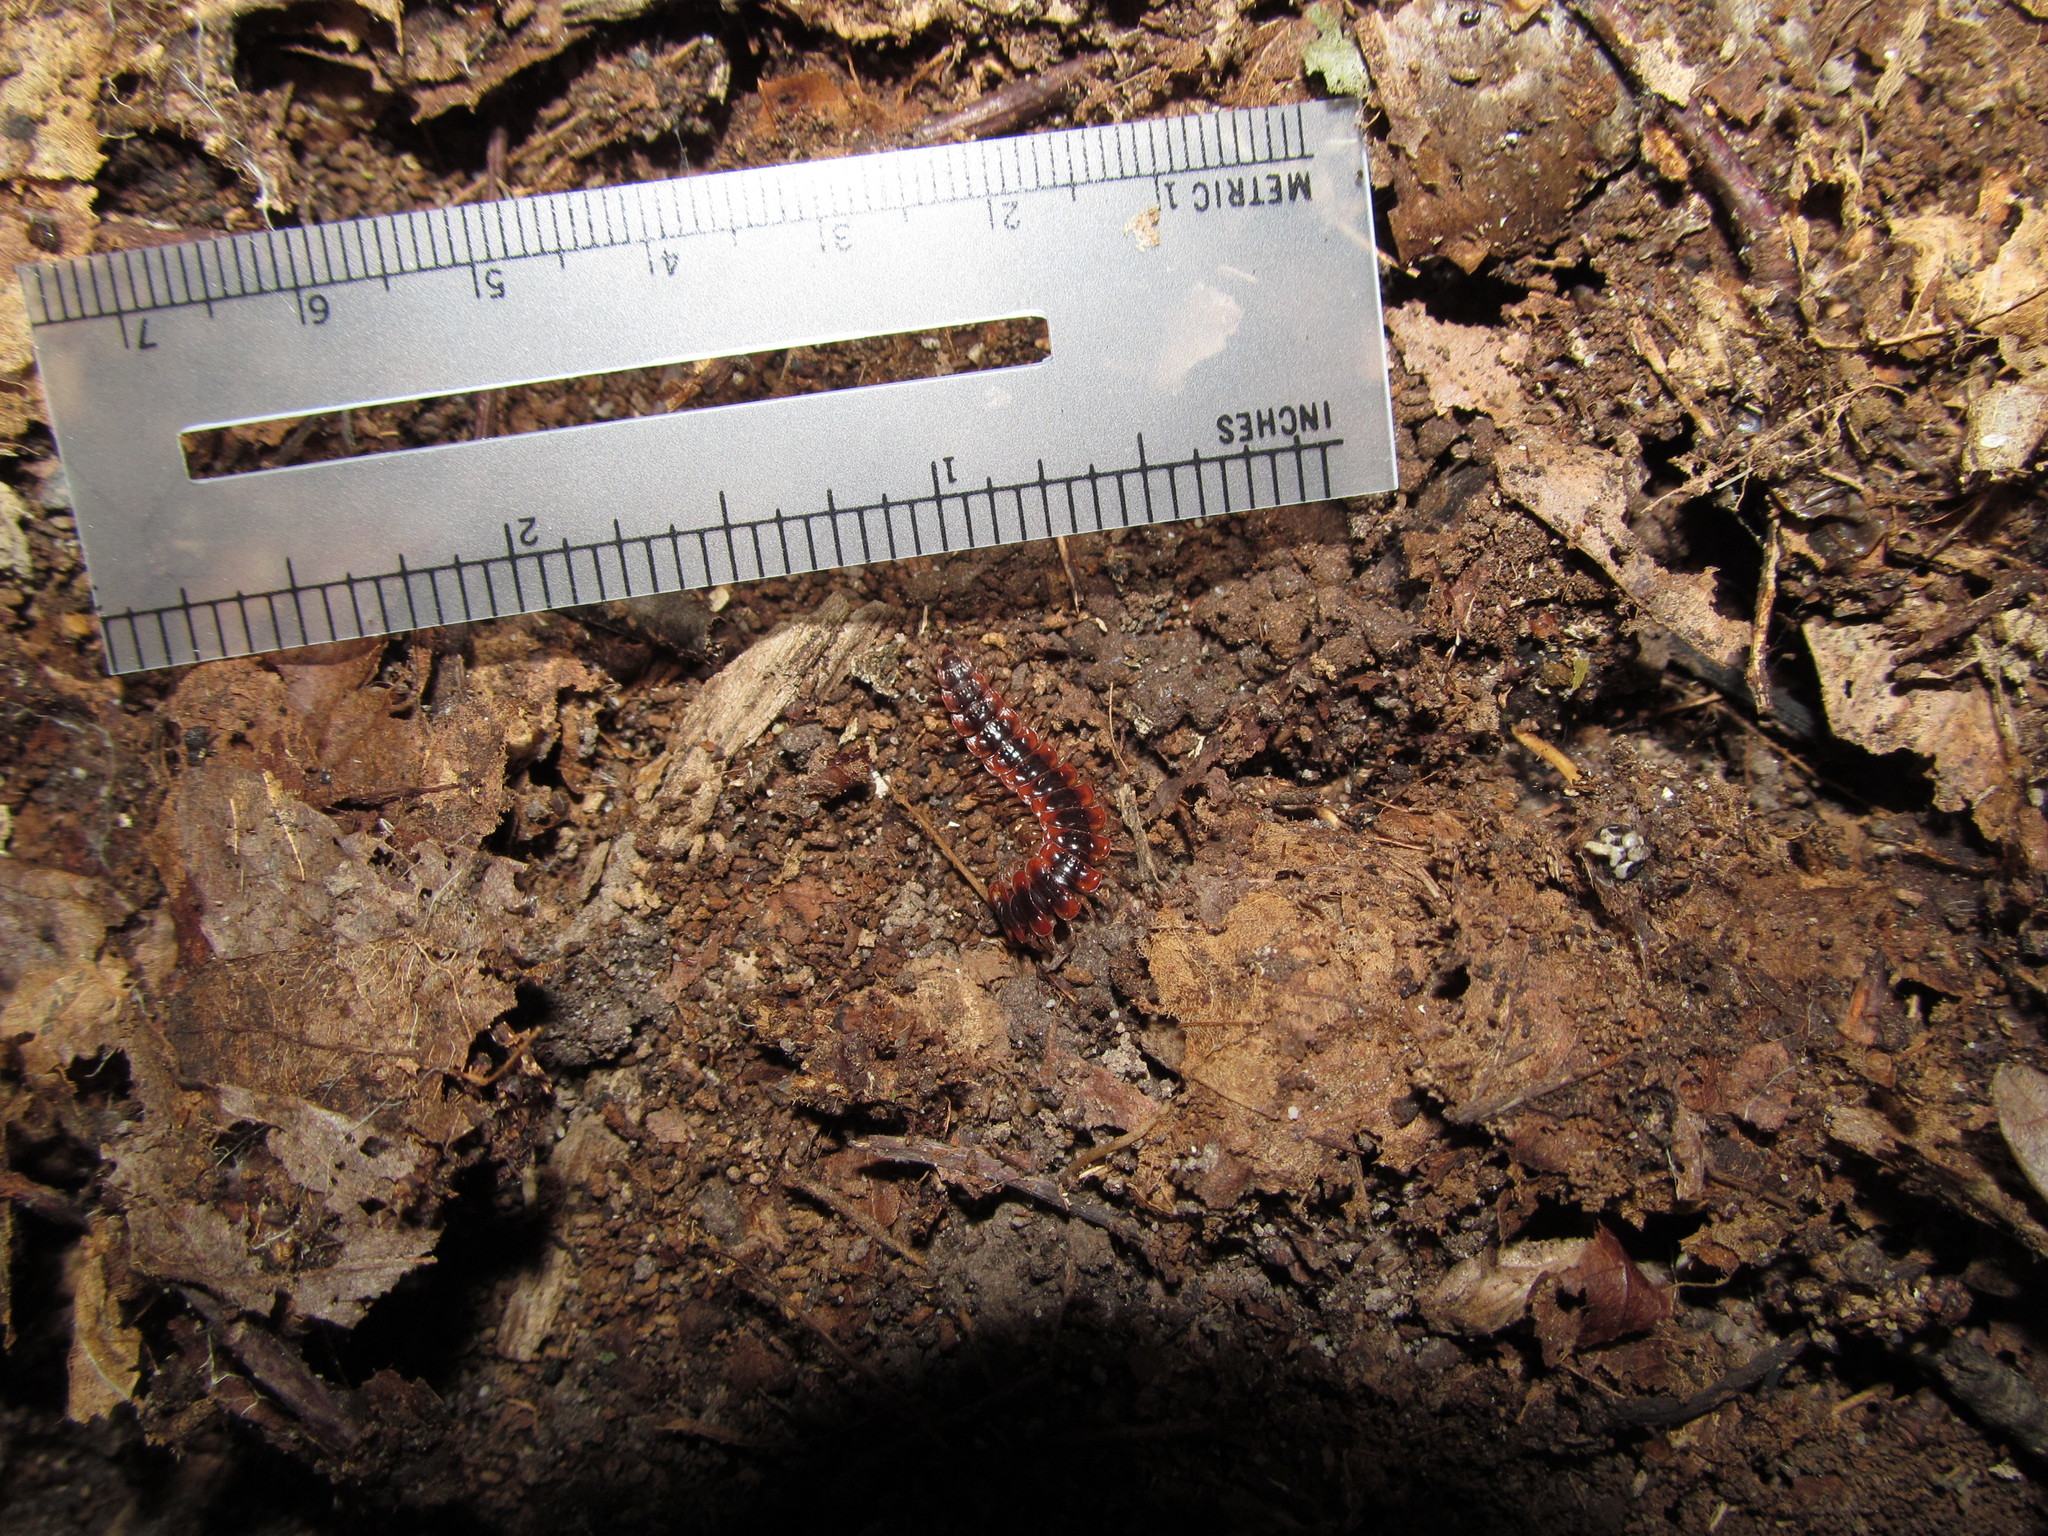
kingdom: Animalia
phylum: Arthropoda
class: Diplopoda
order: Polydesmida
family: Polydesmidae
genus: Pseudopolydesmus
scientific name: Pseudopolydesmus canadensis
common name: Canadian flat-back millipede
